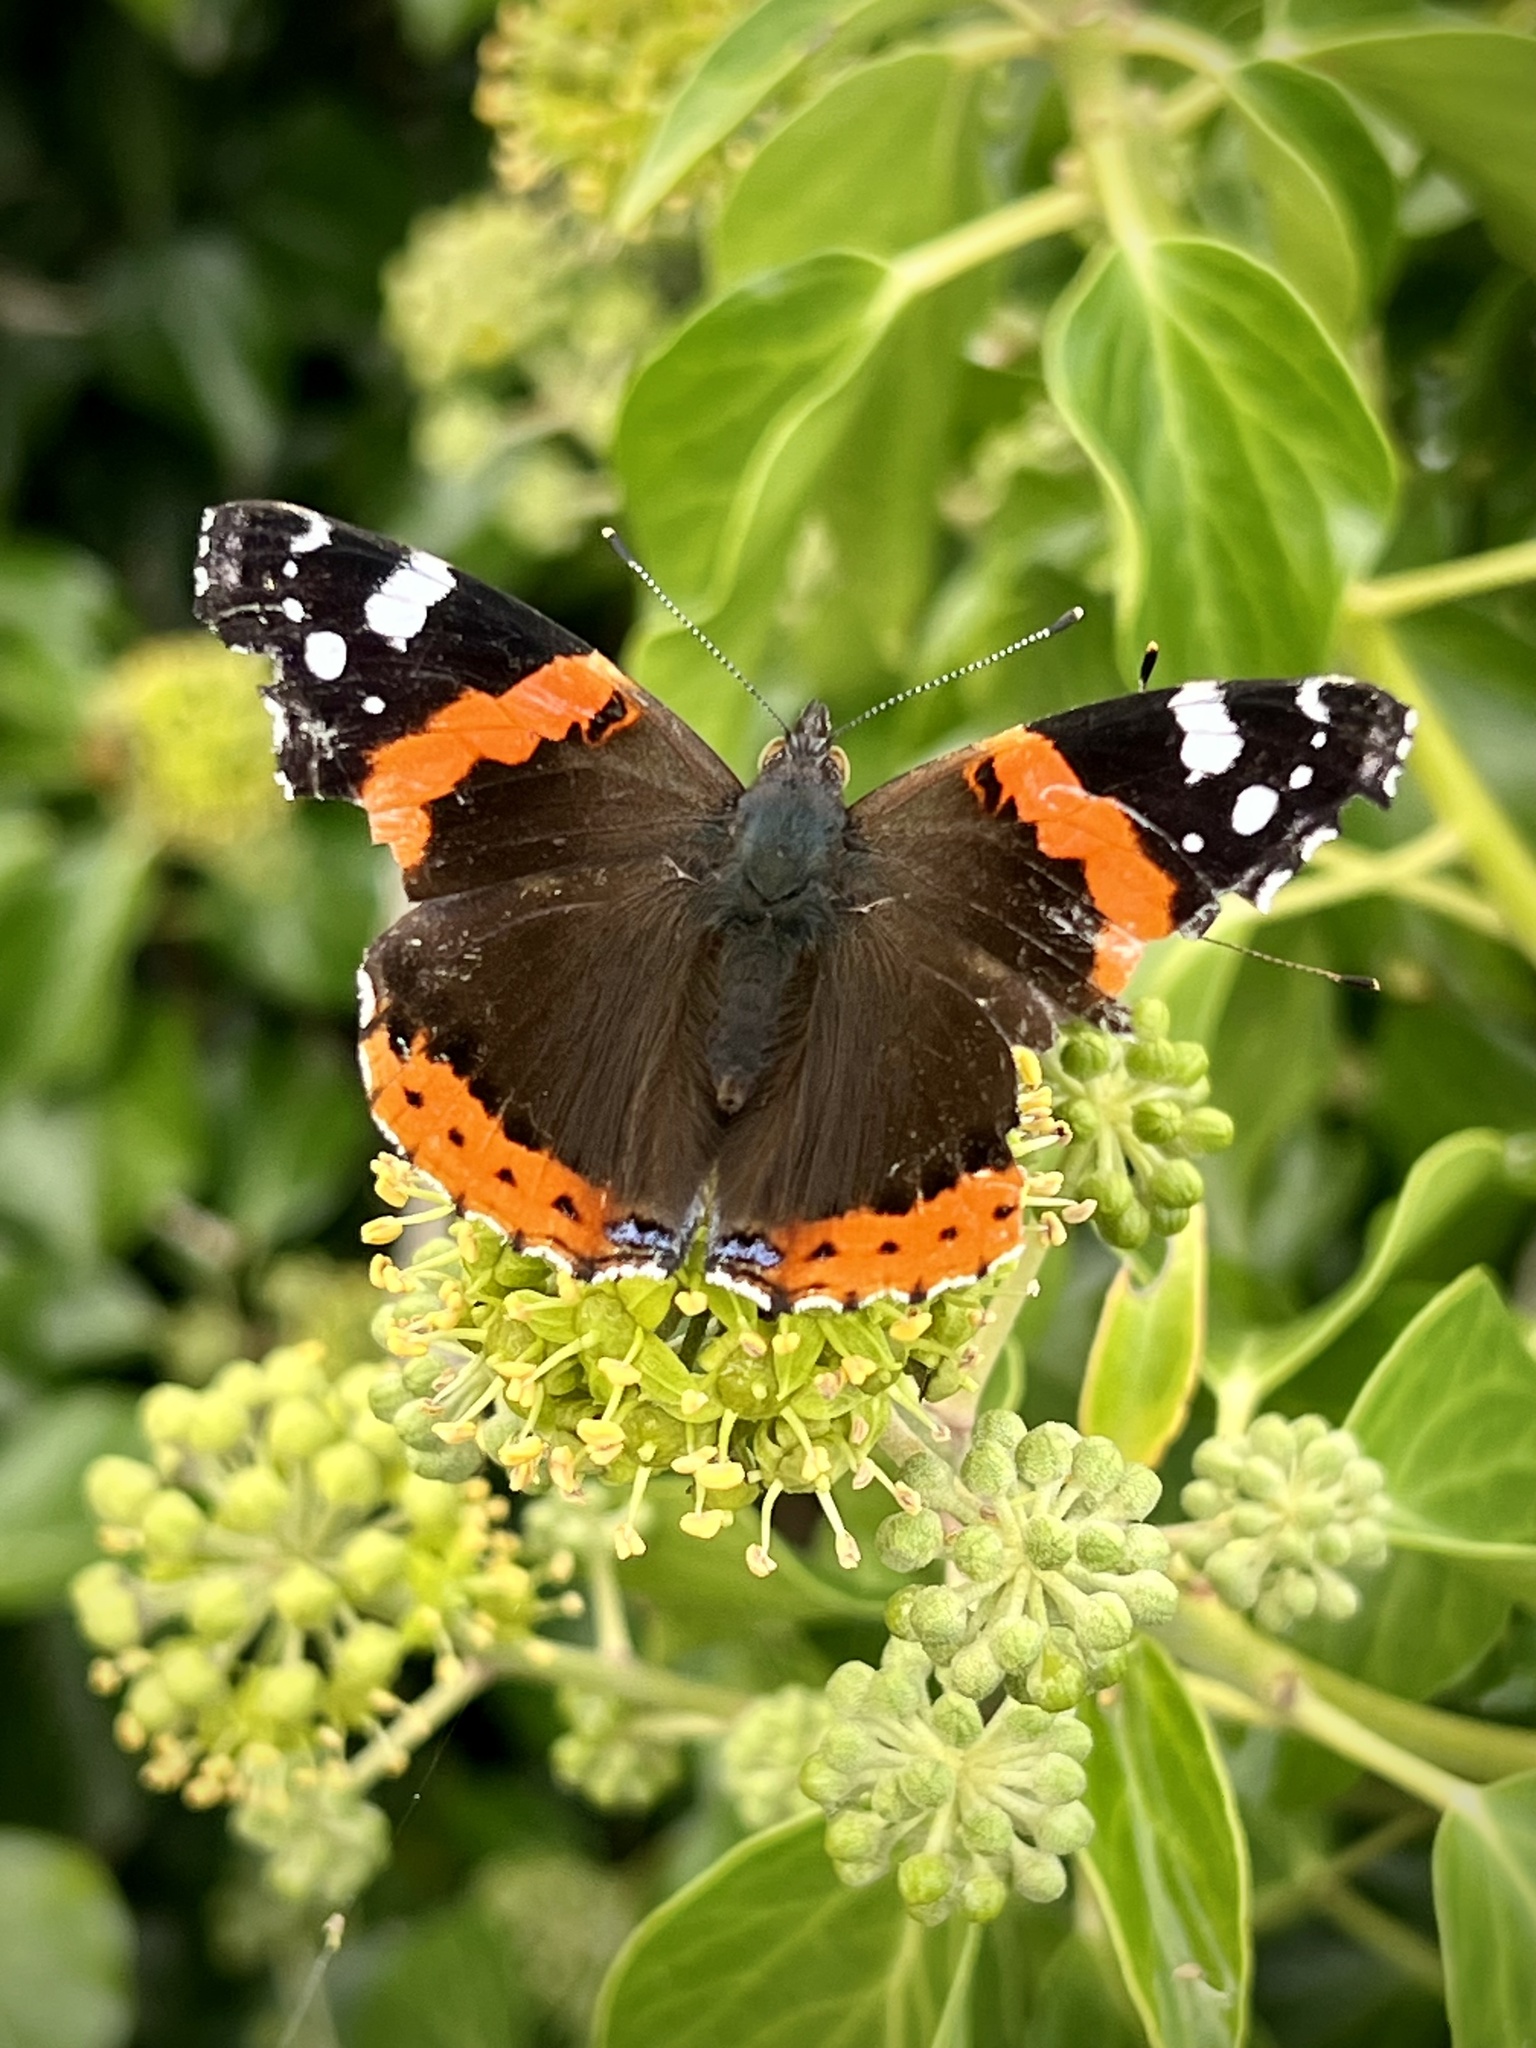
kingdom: Animalia
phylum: Arthropoda
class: Insecta
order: Lepidoptera
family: Nymphalidae
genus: Vanessa
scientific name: Vanessa atalanta
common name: Red admiral
